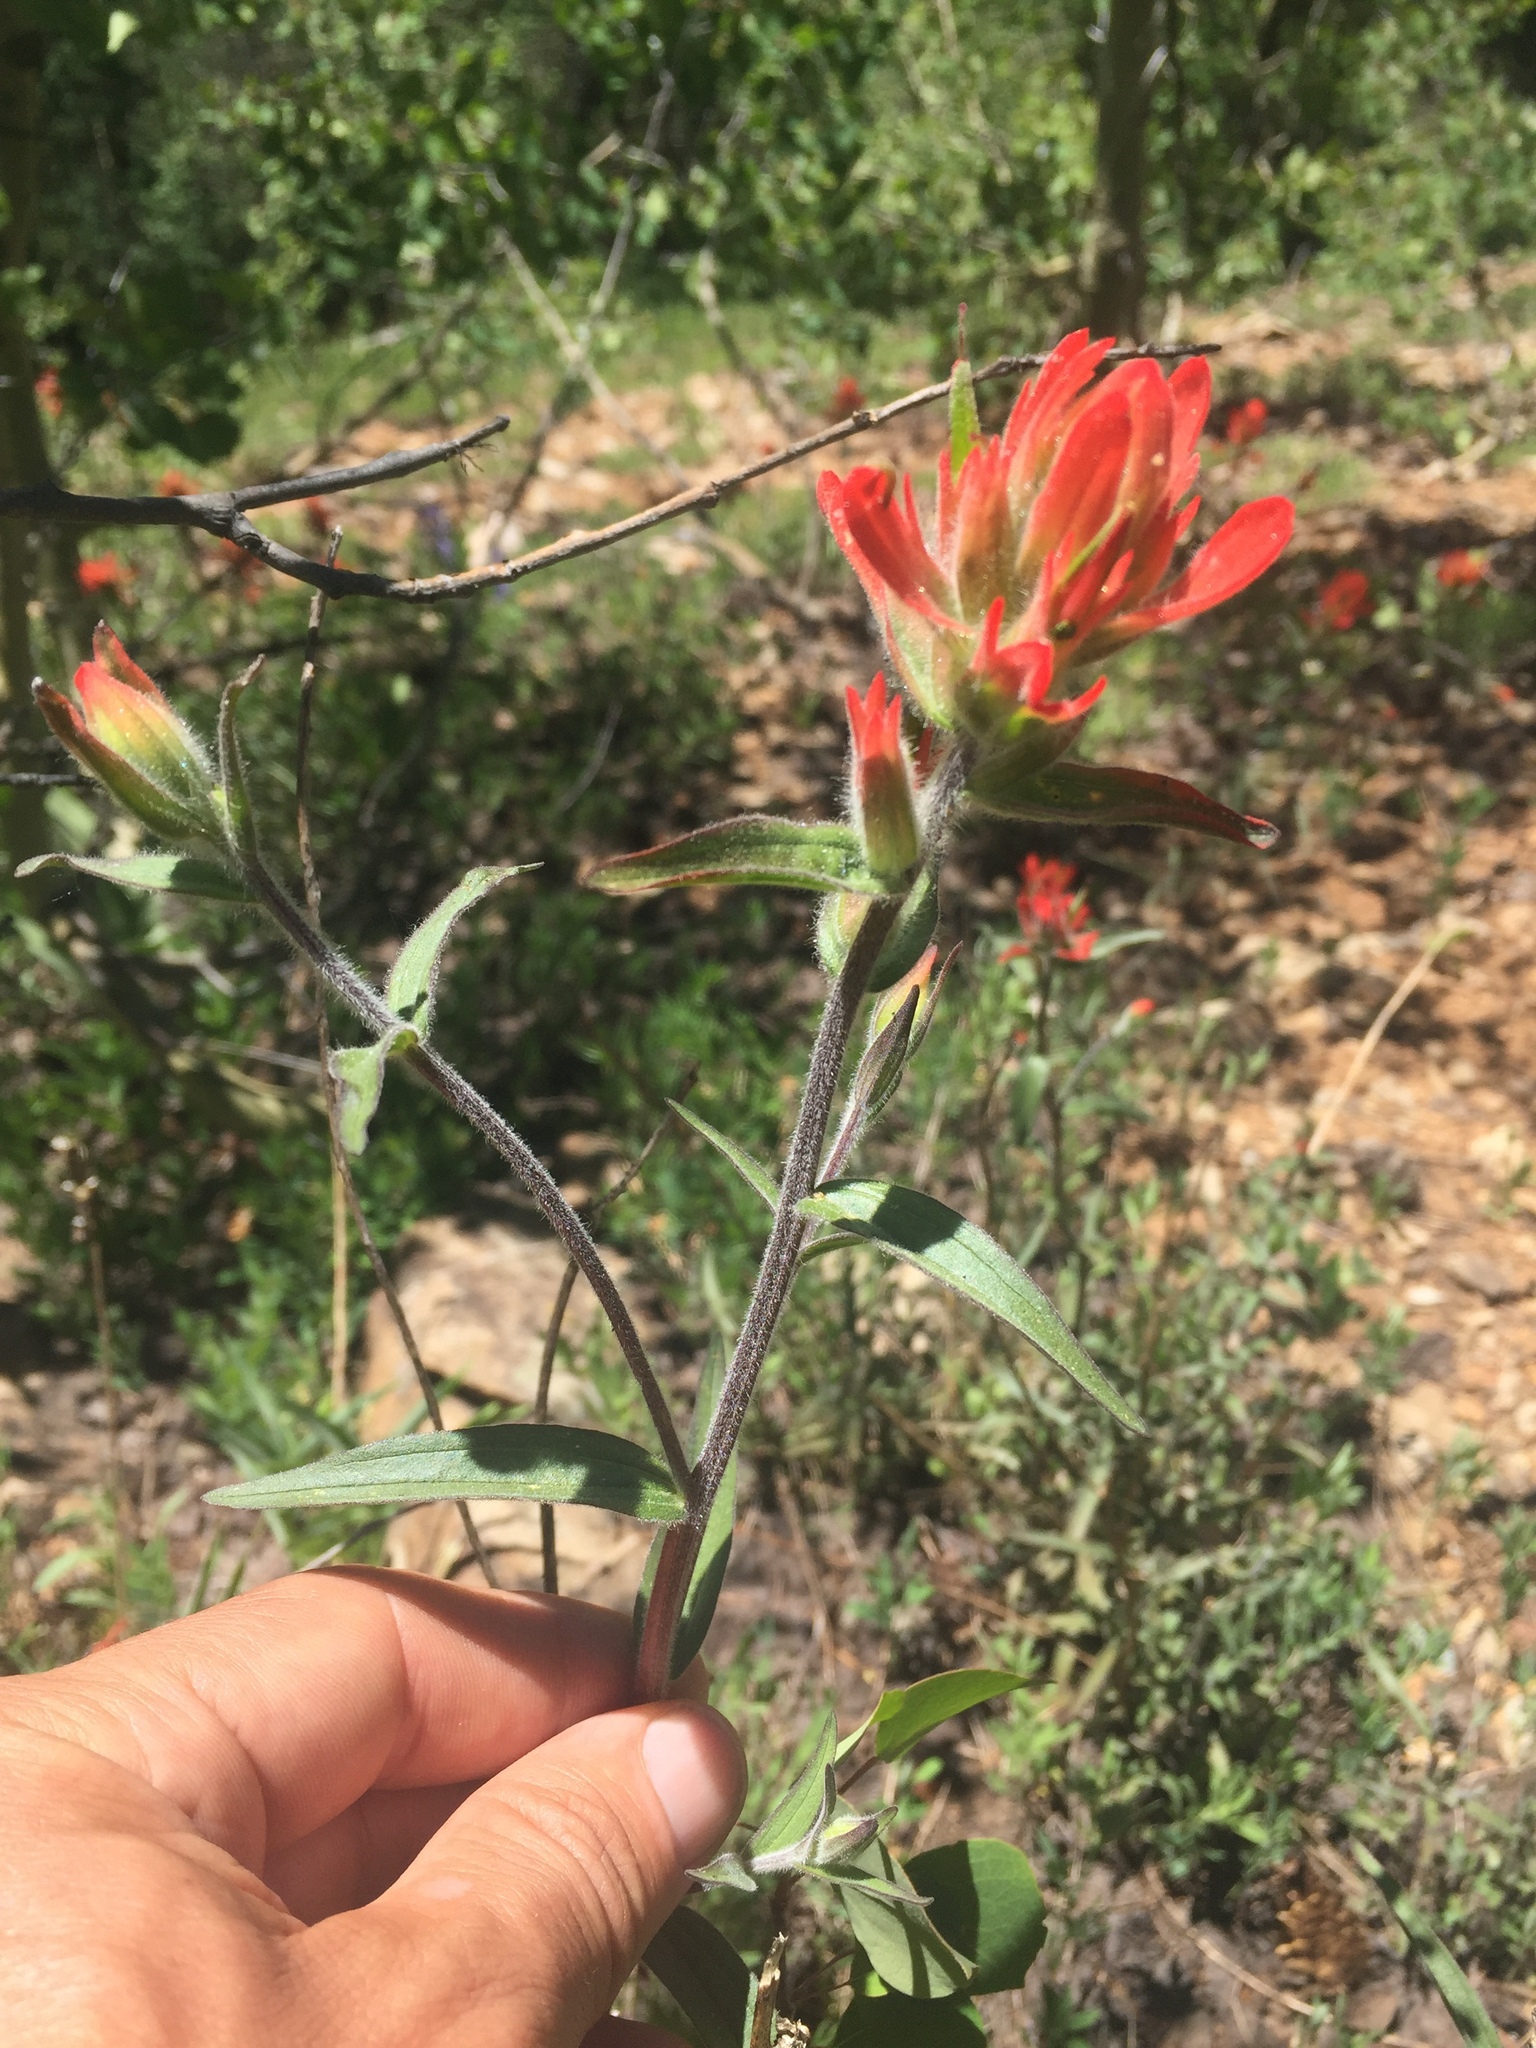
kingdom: Plantae
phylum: Tracheophyta
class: Magnoliopsida
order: Lamiales
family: Orobanchaceae
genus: Castilleja
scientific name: Castilleja miniata
